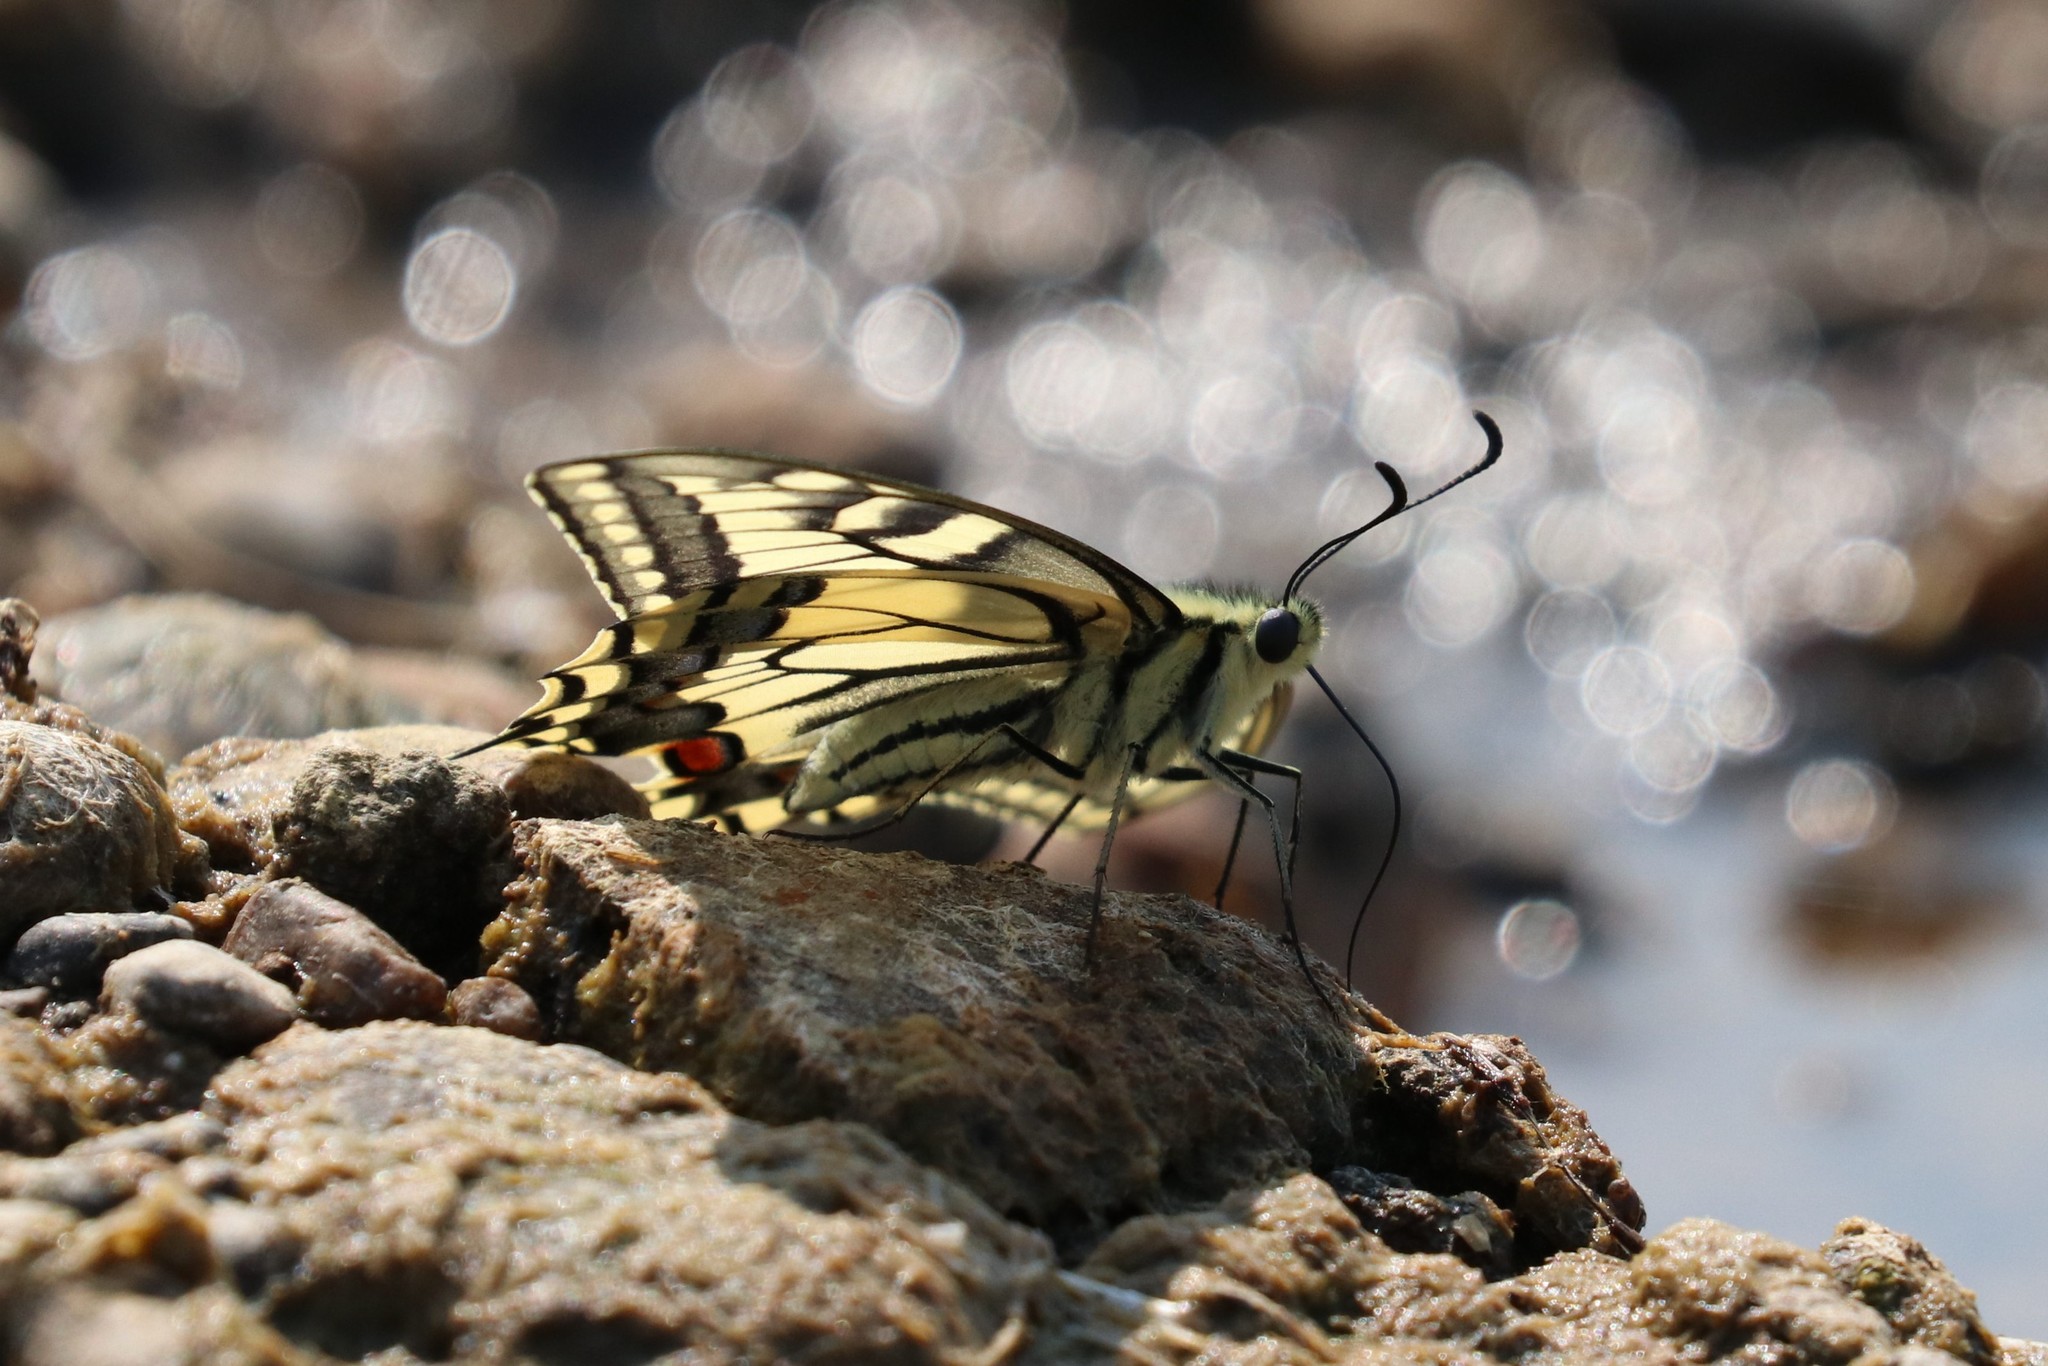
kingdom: Animalia
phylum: Arthropoda
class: Insecta
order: Lepidoptera
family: Papilionidae
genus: Papilio
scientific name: Papilio machaon
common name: Swallowtail
